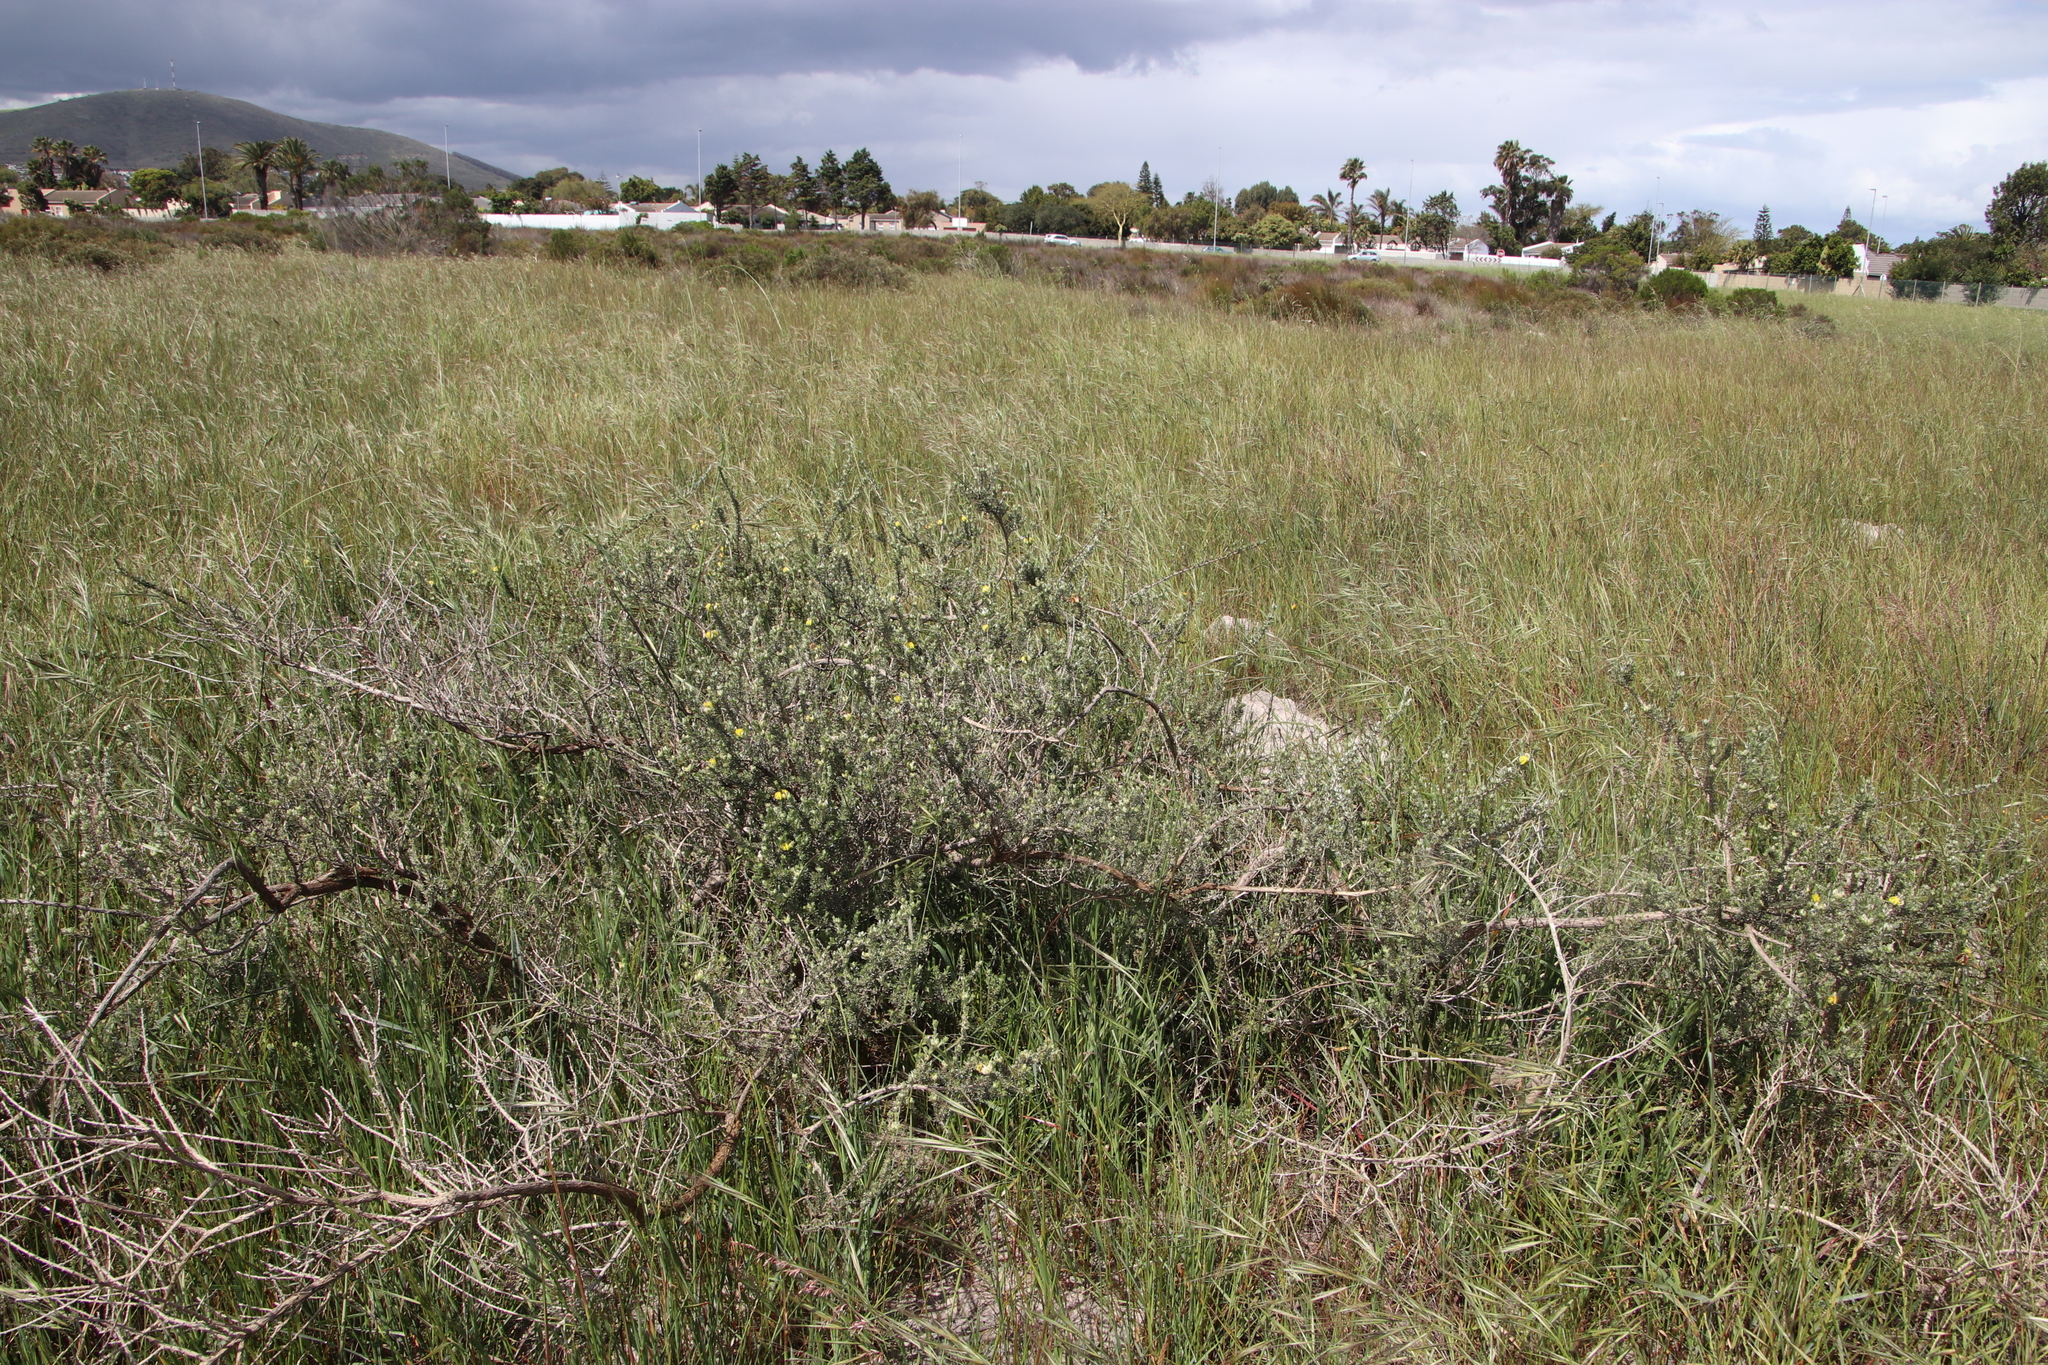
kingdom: Plantae
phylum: Tracheophyta
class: Magnoliopsida
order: Fabales
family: Fabaceae
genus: Aspalathus
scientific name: Aspalathus ternata
